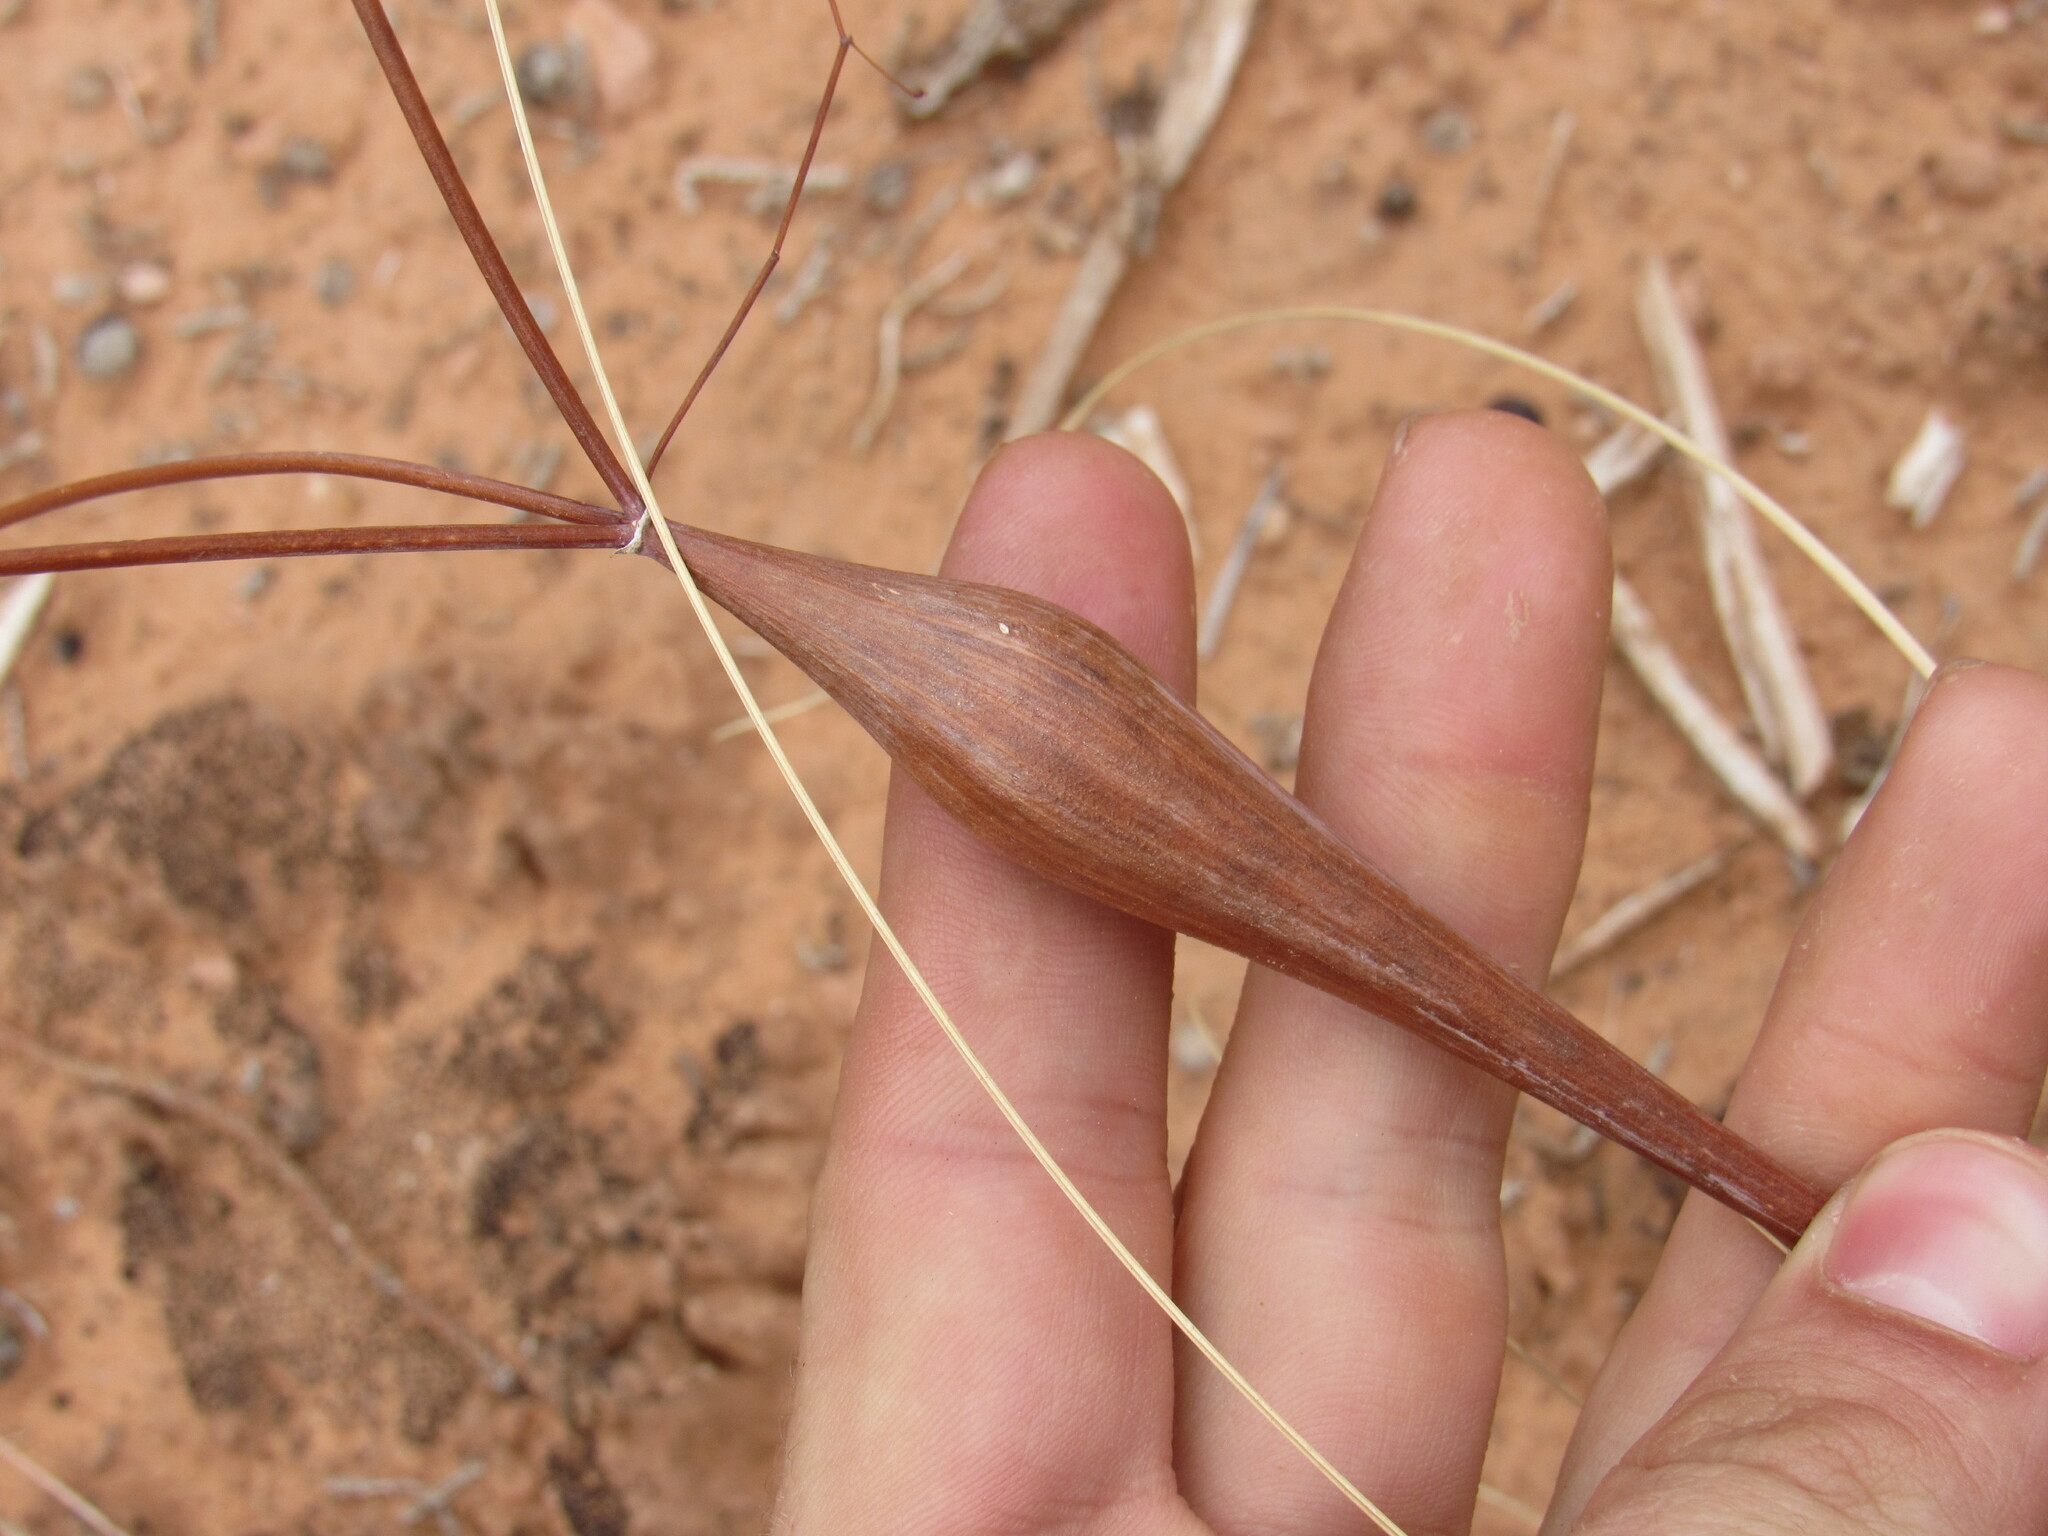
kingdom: Plantae
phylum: Tracheophyta
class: Magnoliopsida
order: Caryophyllales
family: Polygonaceae
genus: Eriogonum
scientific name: Eriogonum inflatum
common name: Desert trumpet
